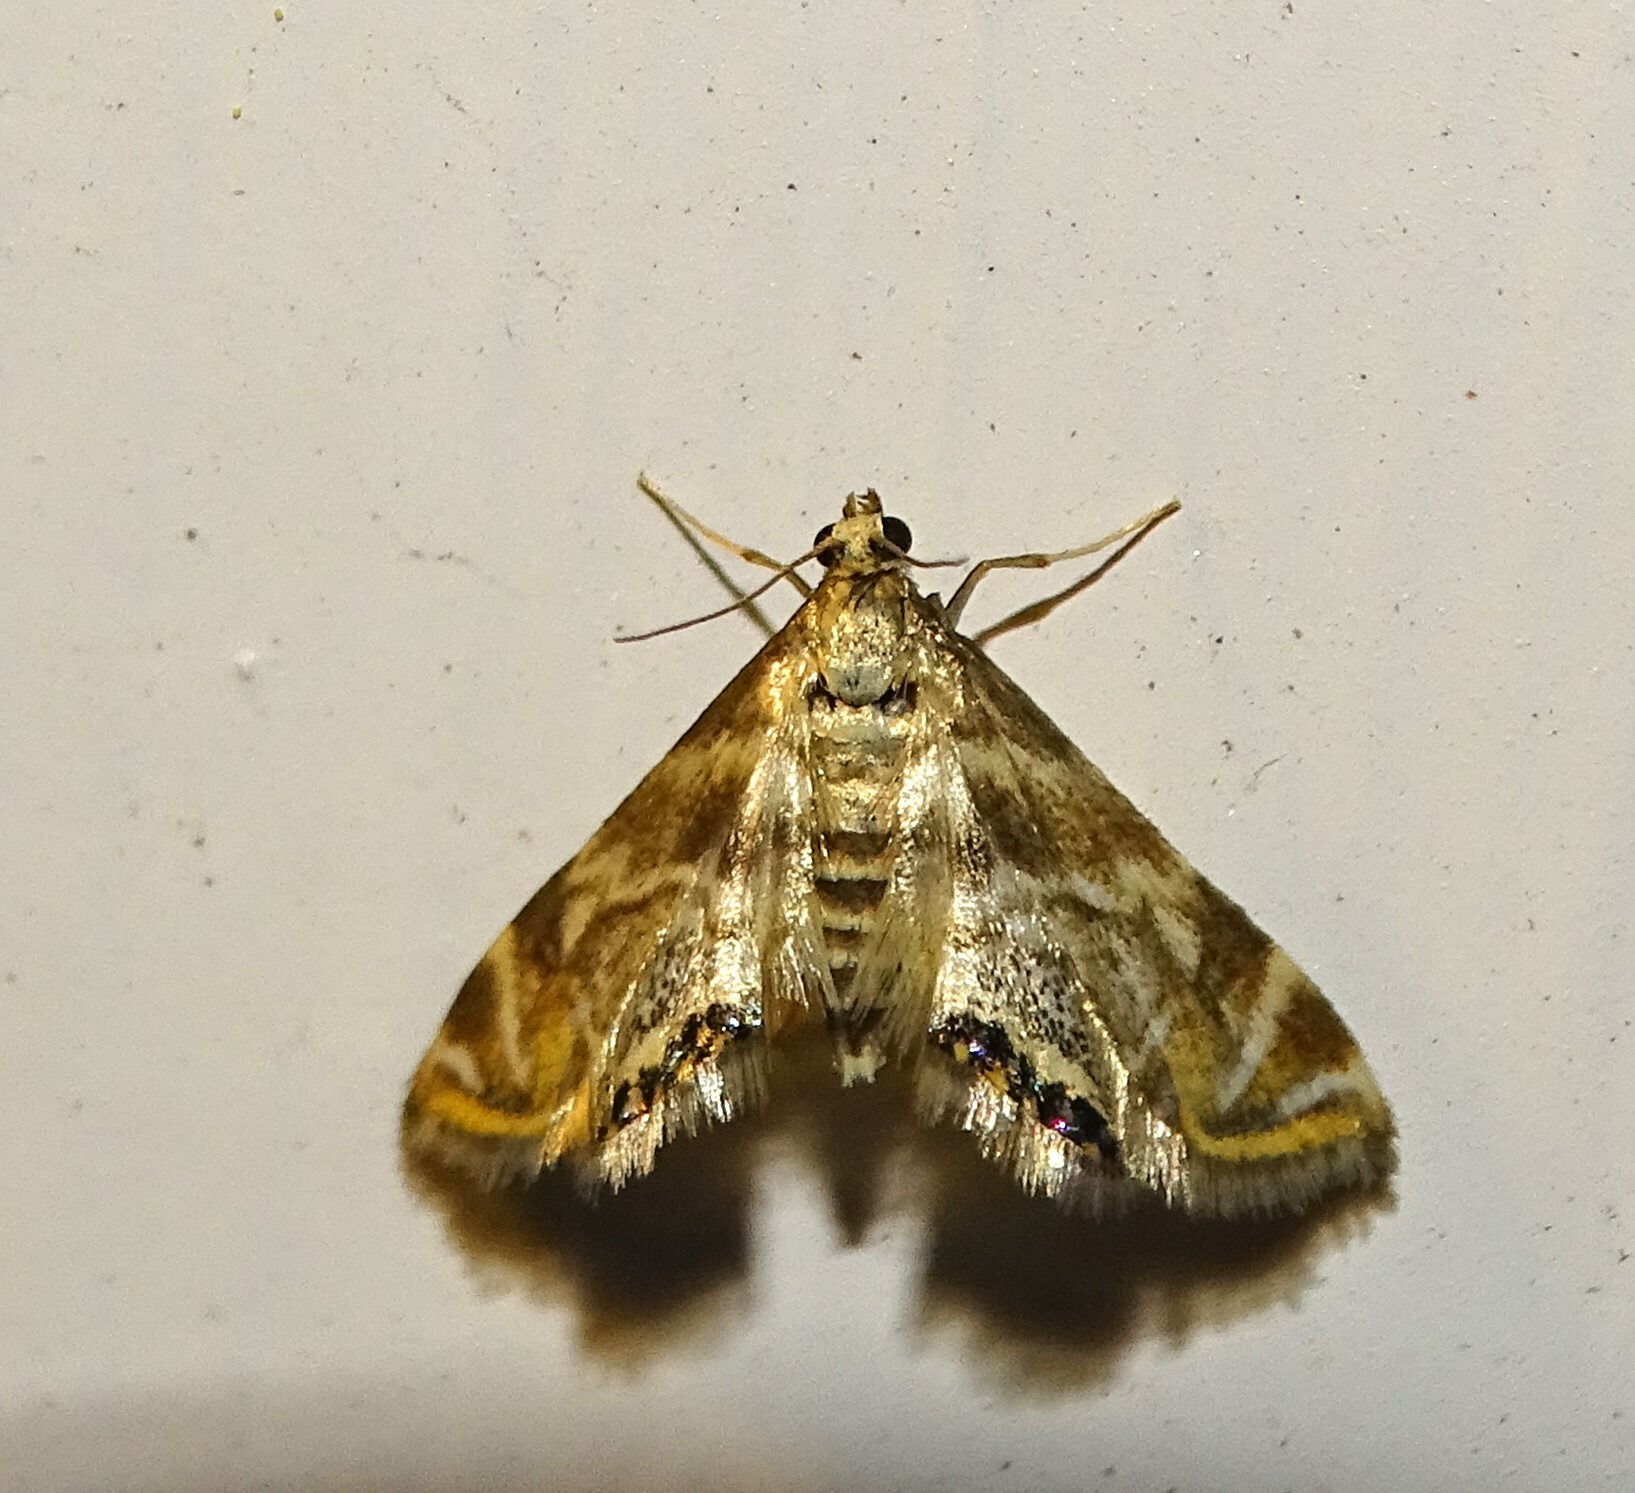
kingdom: Animalia
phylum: Arthropoda
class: Insecta
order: Lepidoptera
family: Crambidae
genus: Petrophila
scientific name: Petrophila canadensis
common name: Canadian petrophila
